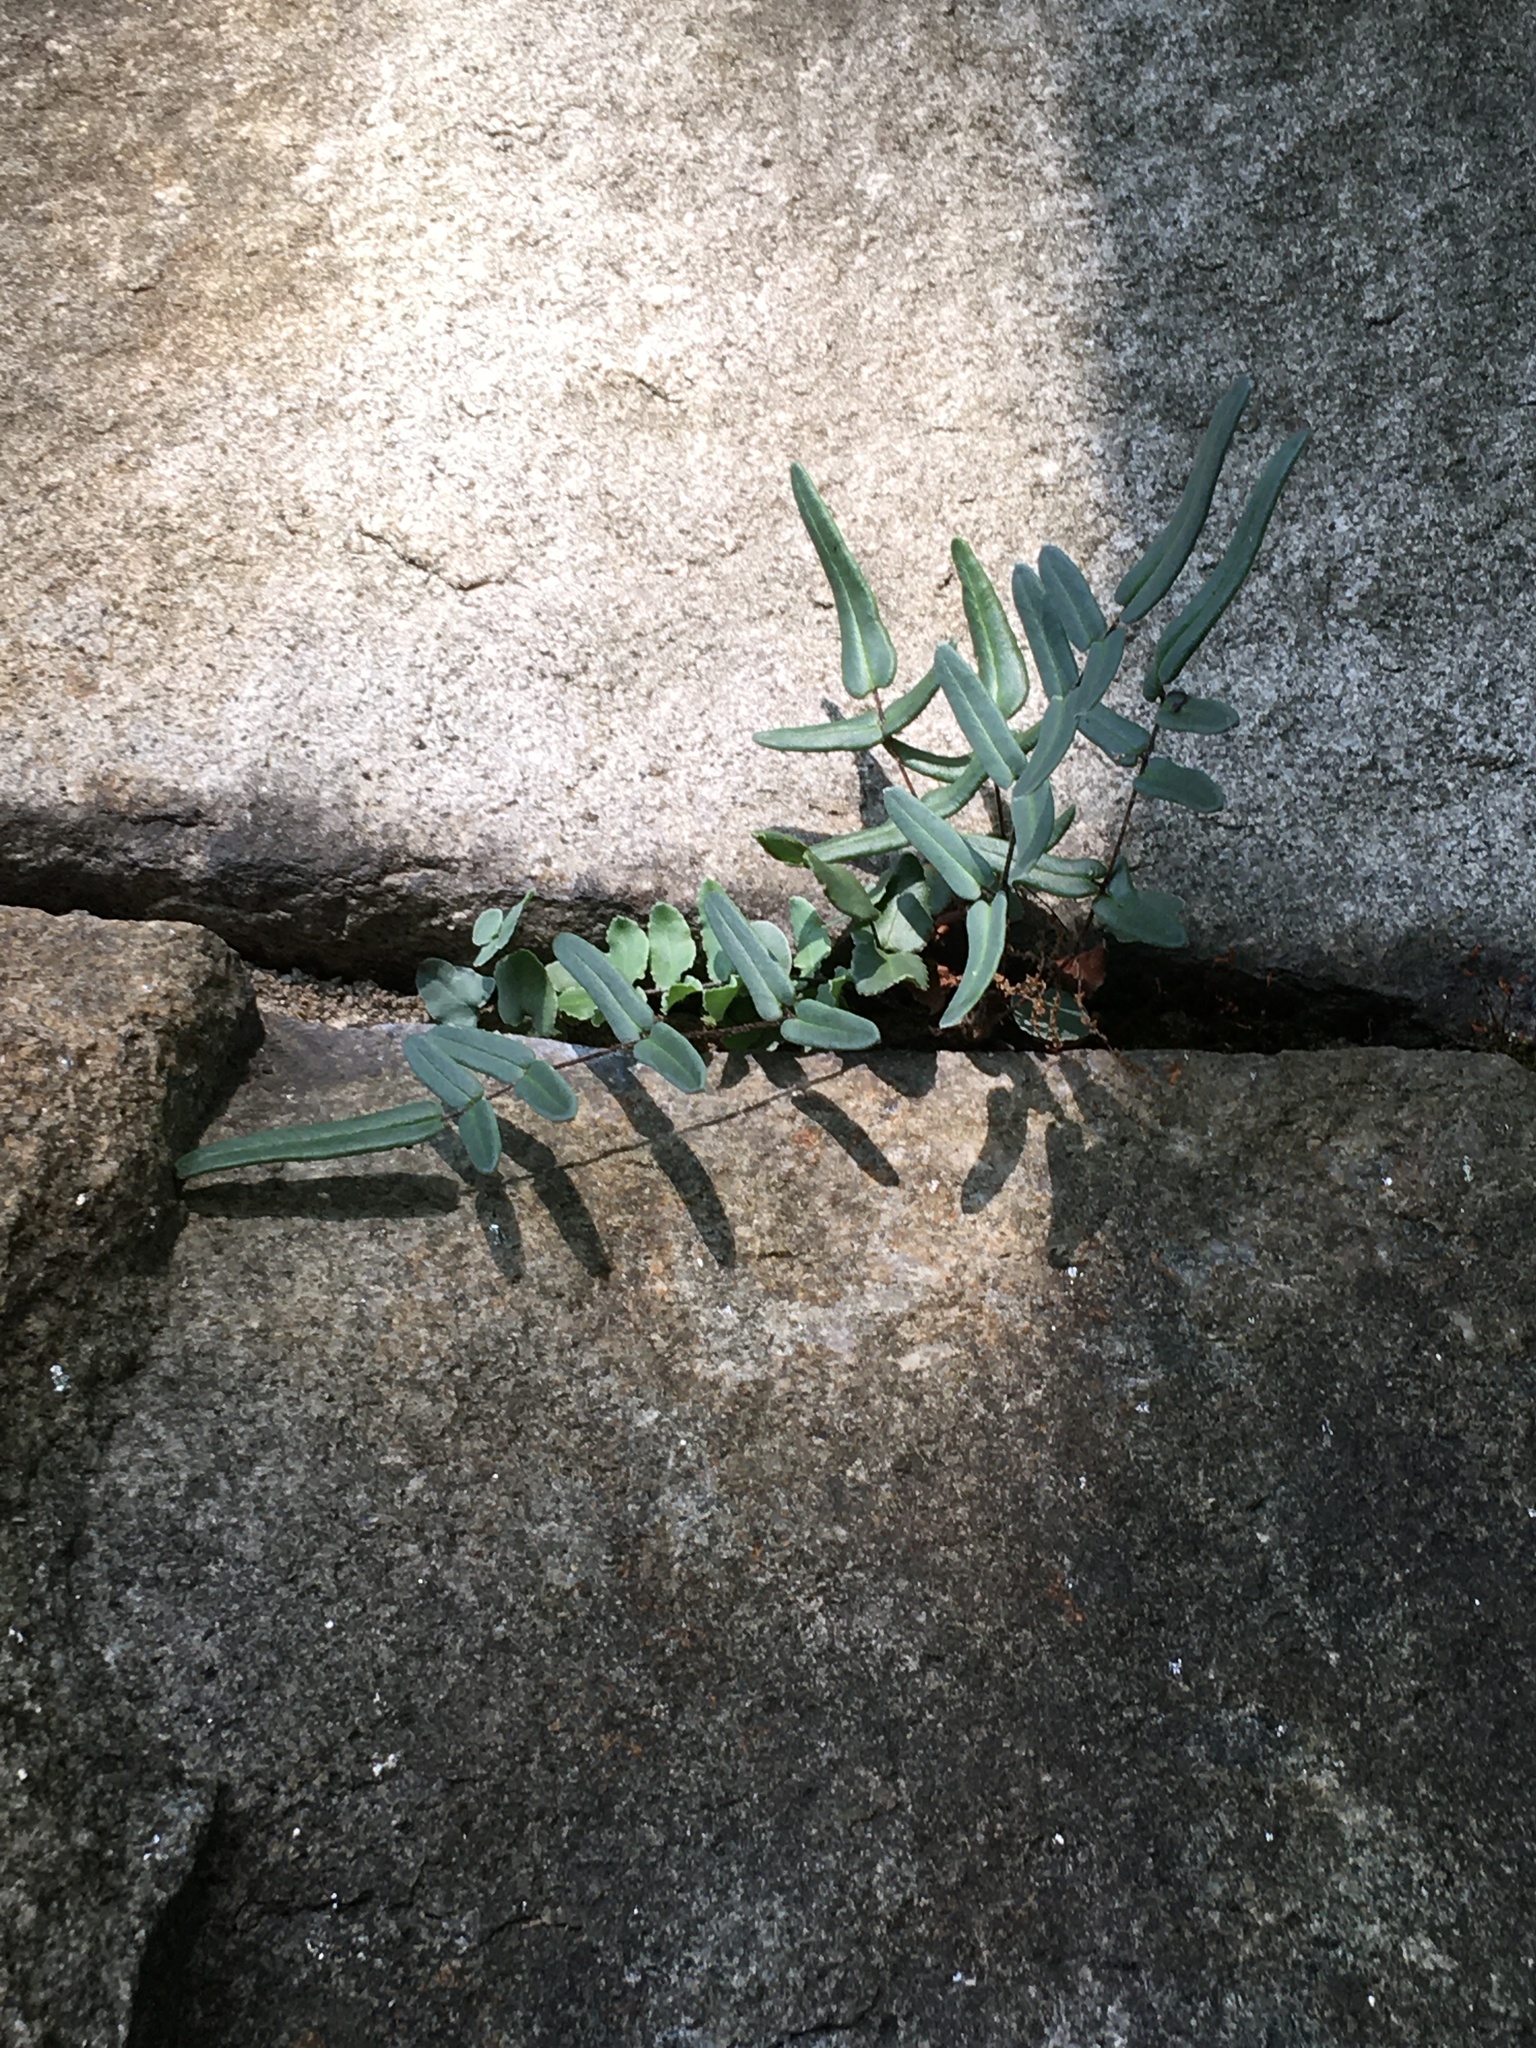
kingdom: Plantae
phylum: Tracheophyta
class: Polypodiopsida
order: Polypodiales
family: Pteridaceae
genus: Pellaea
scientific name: Pellaea atropurpurea
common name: Hairy cliffbrake
